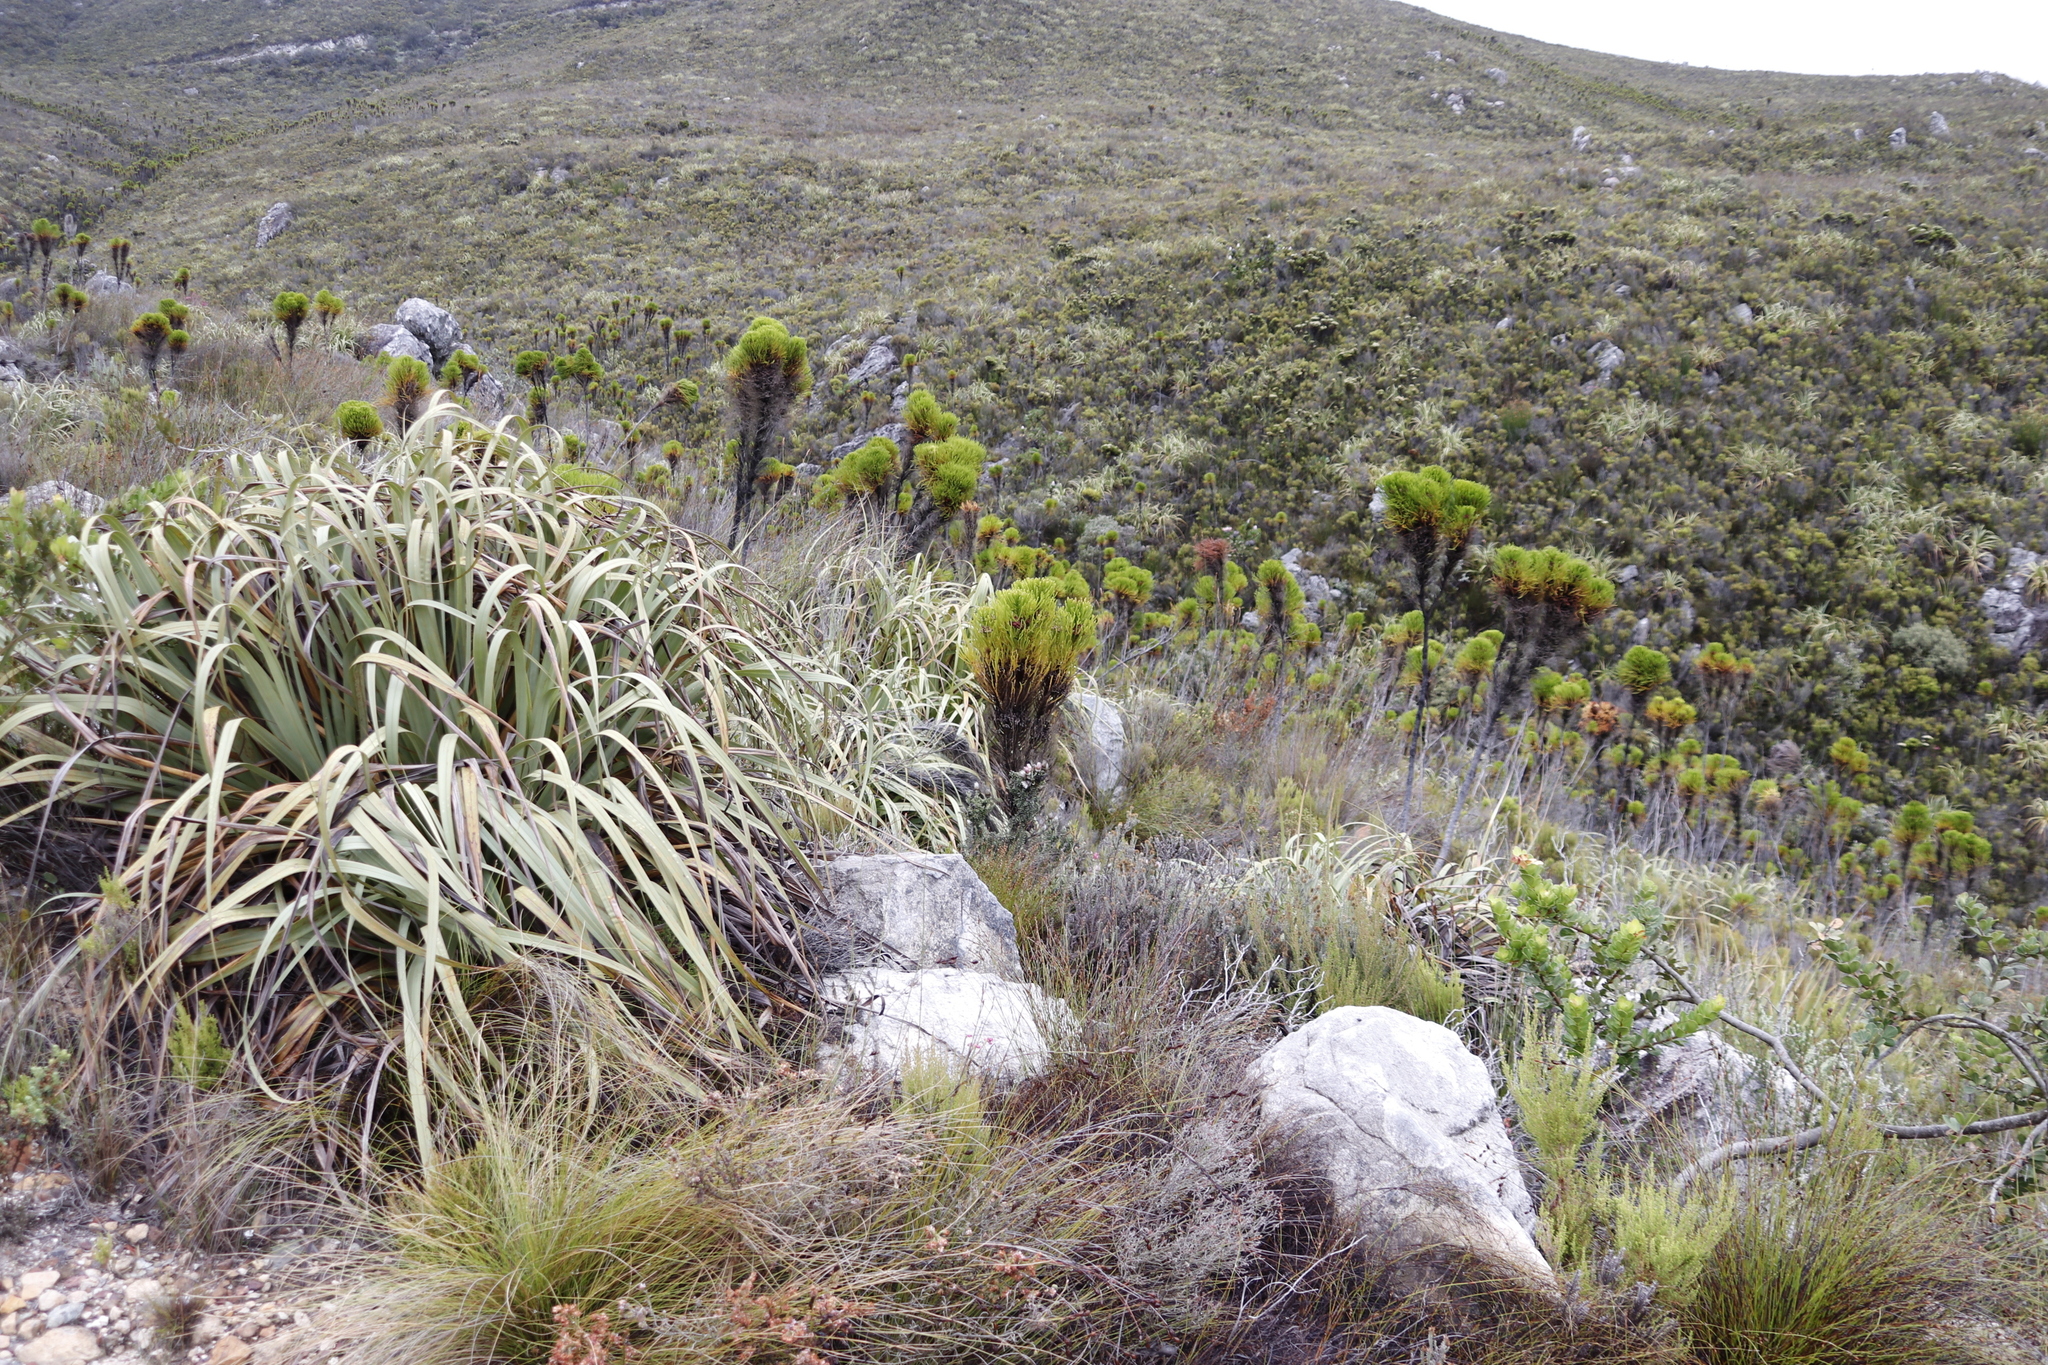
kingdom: Plantae
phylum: Tracheophyta
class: Liliopsida
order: Poales
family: Cyperaceae
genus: Tetraria
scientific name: Tetraria thermalis
